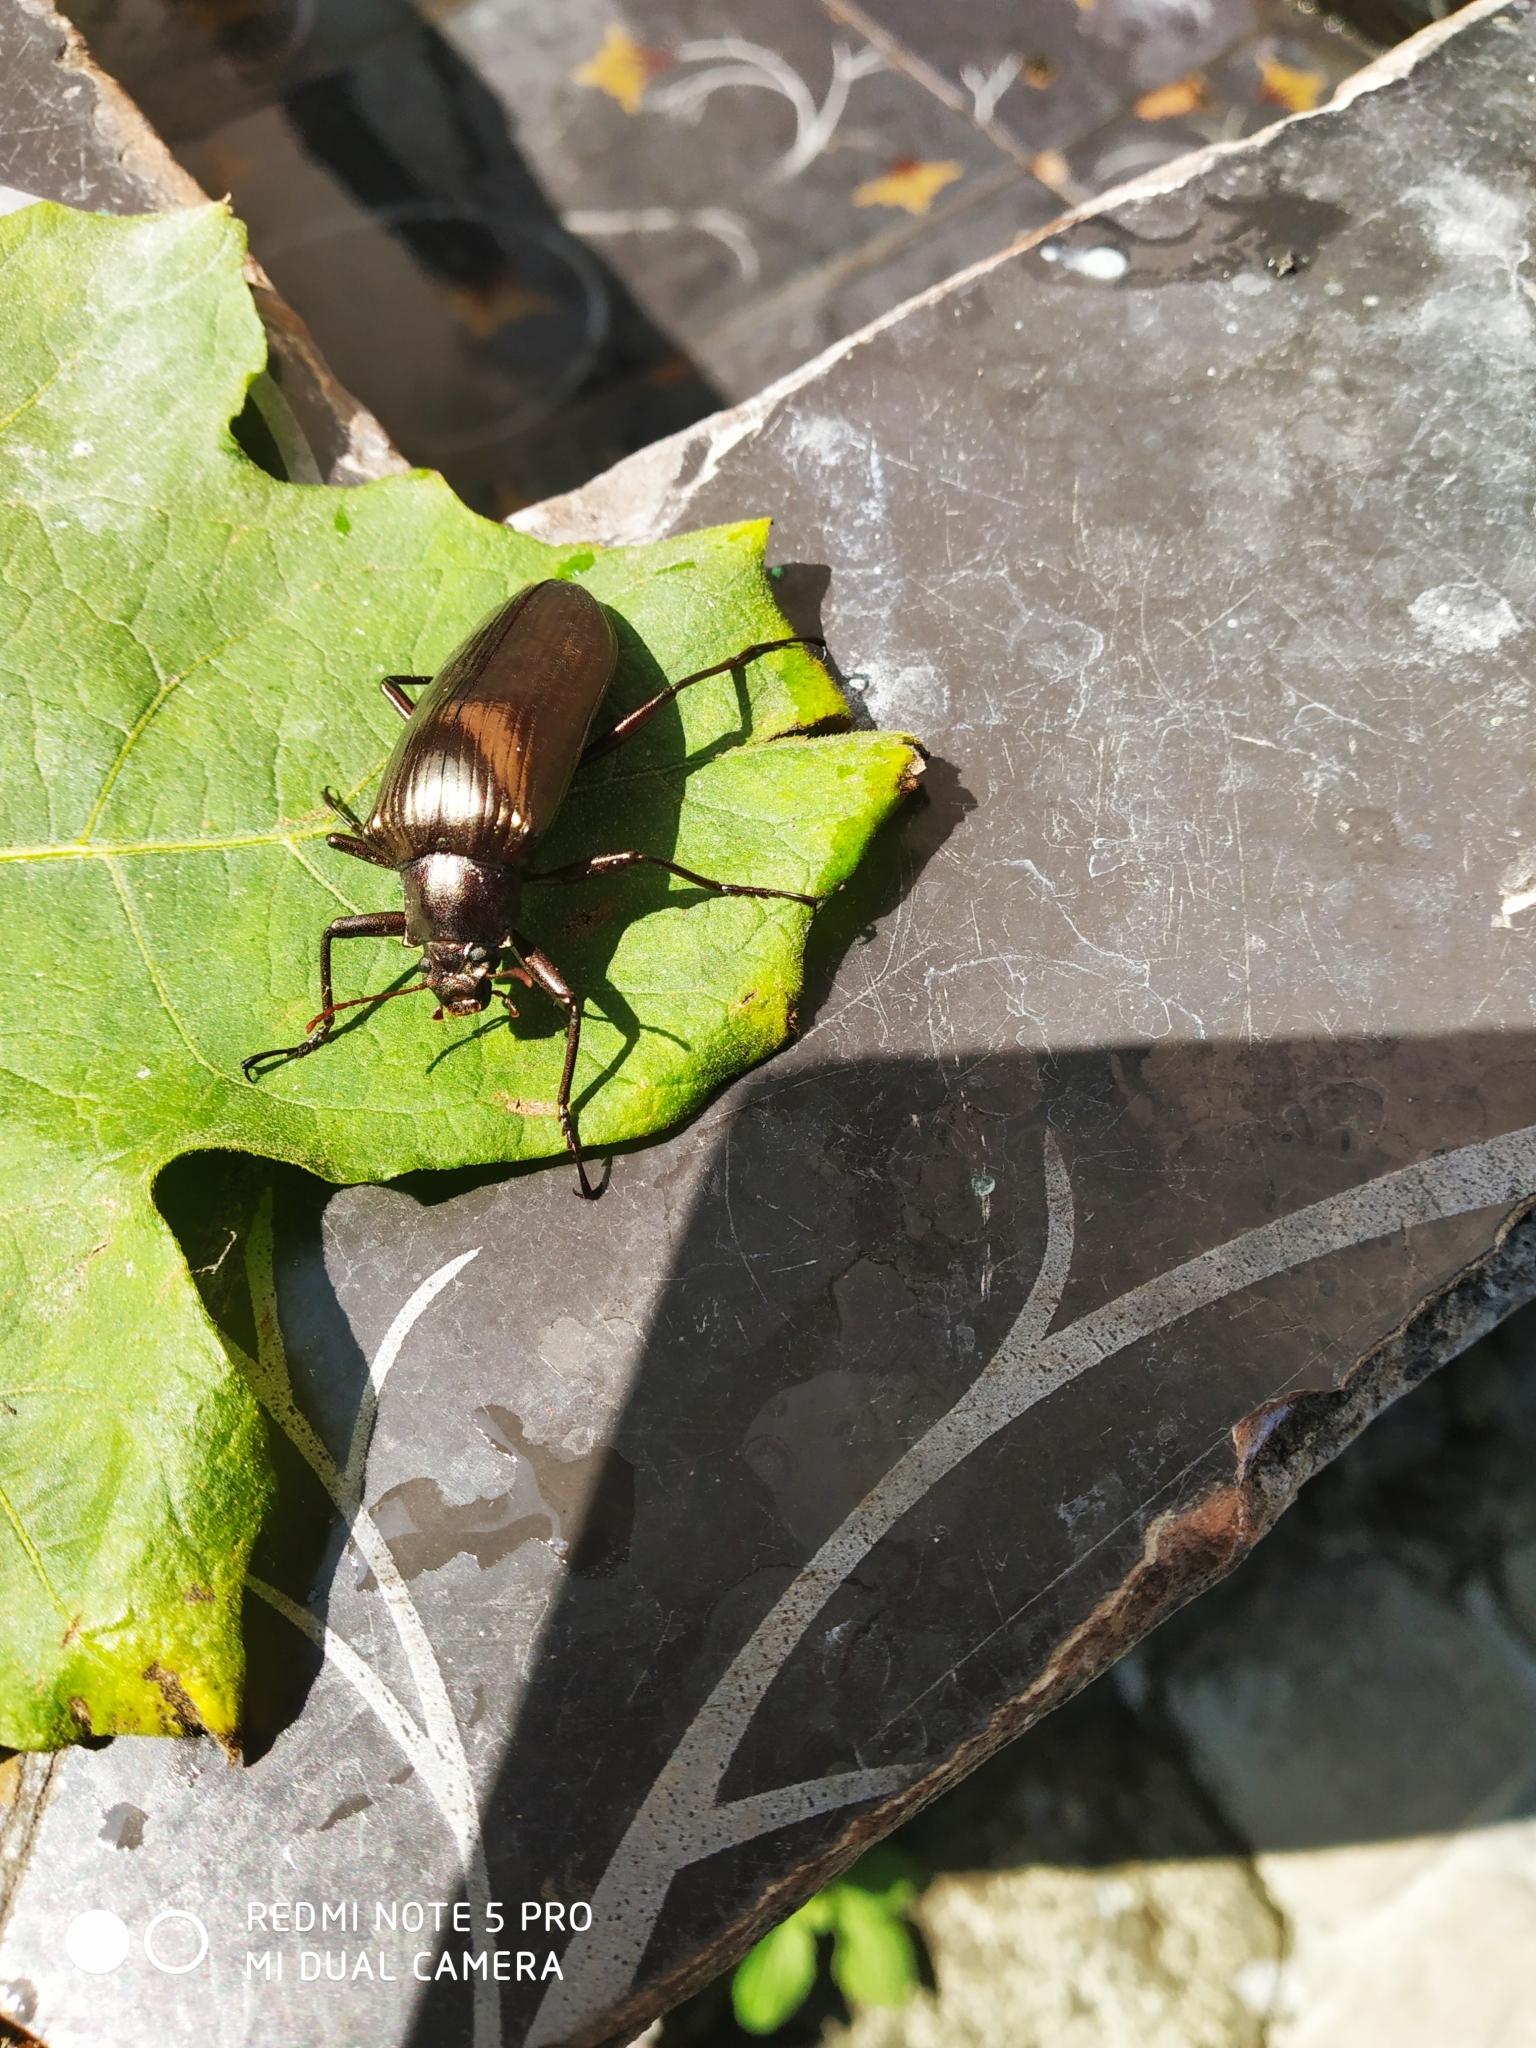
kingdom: Animalia
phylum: Arthropoda
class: Insecta
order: Coleoptera
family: Tenebrionidae
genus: Gebienocamaria
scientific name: Gebienocamaria
